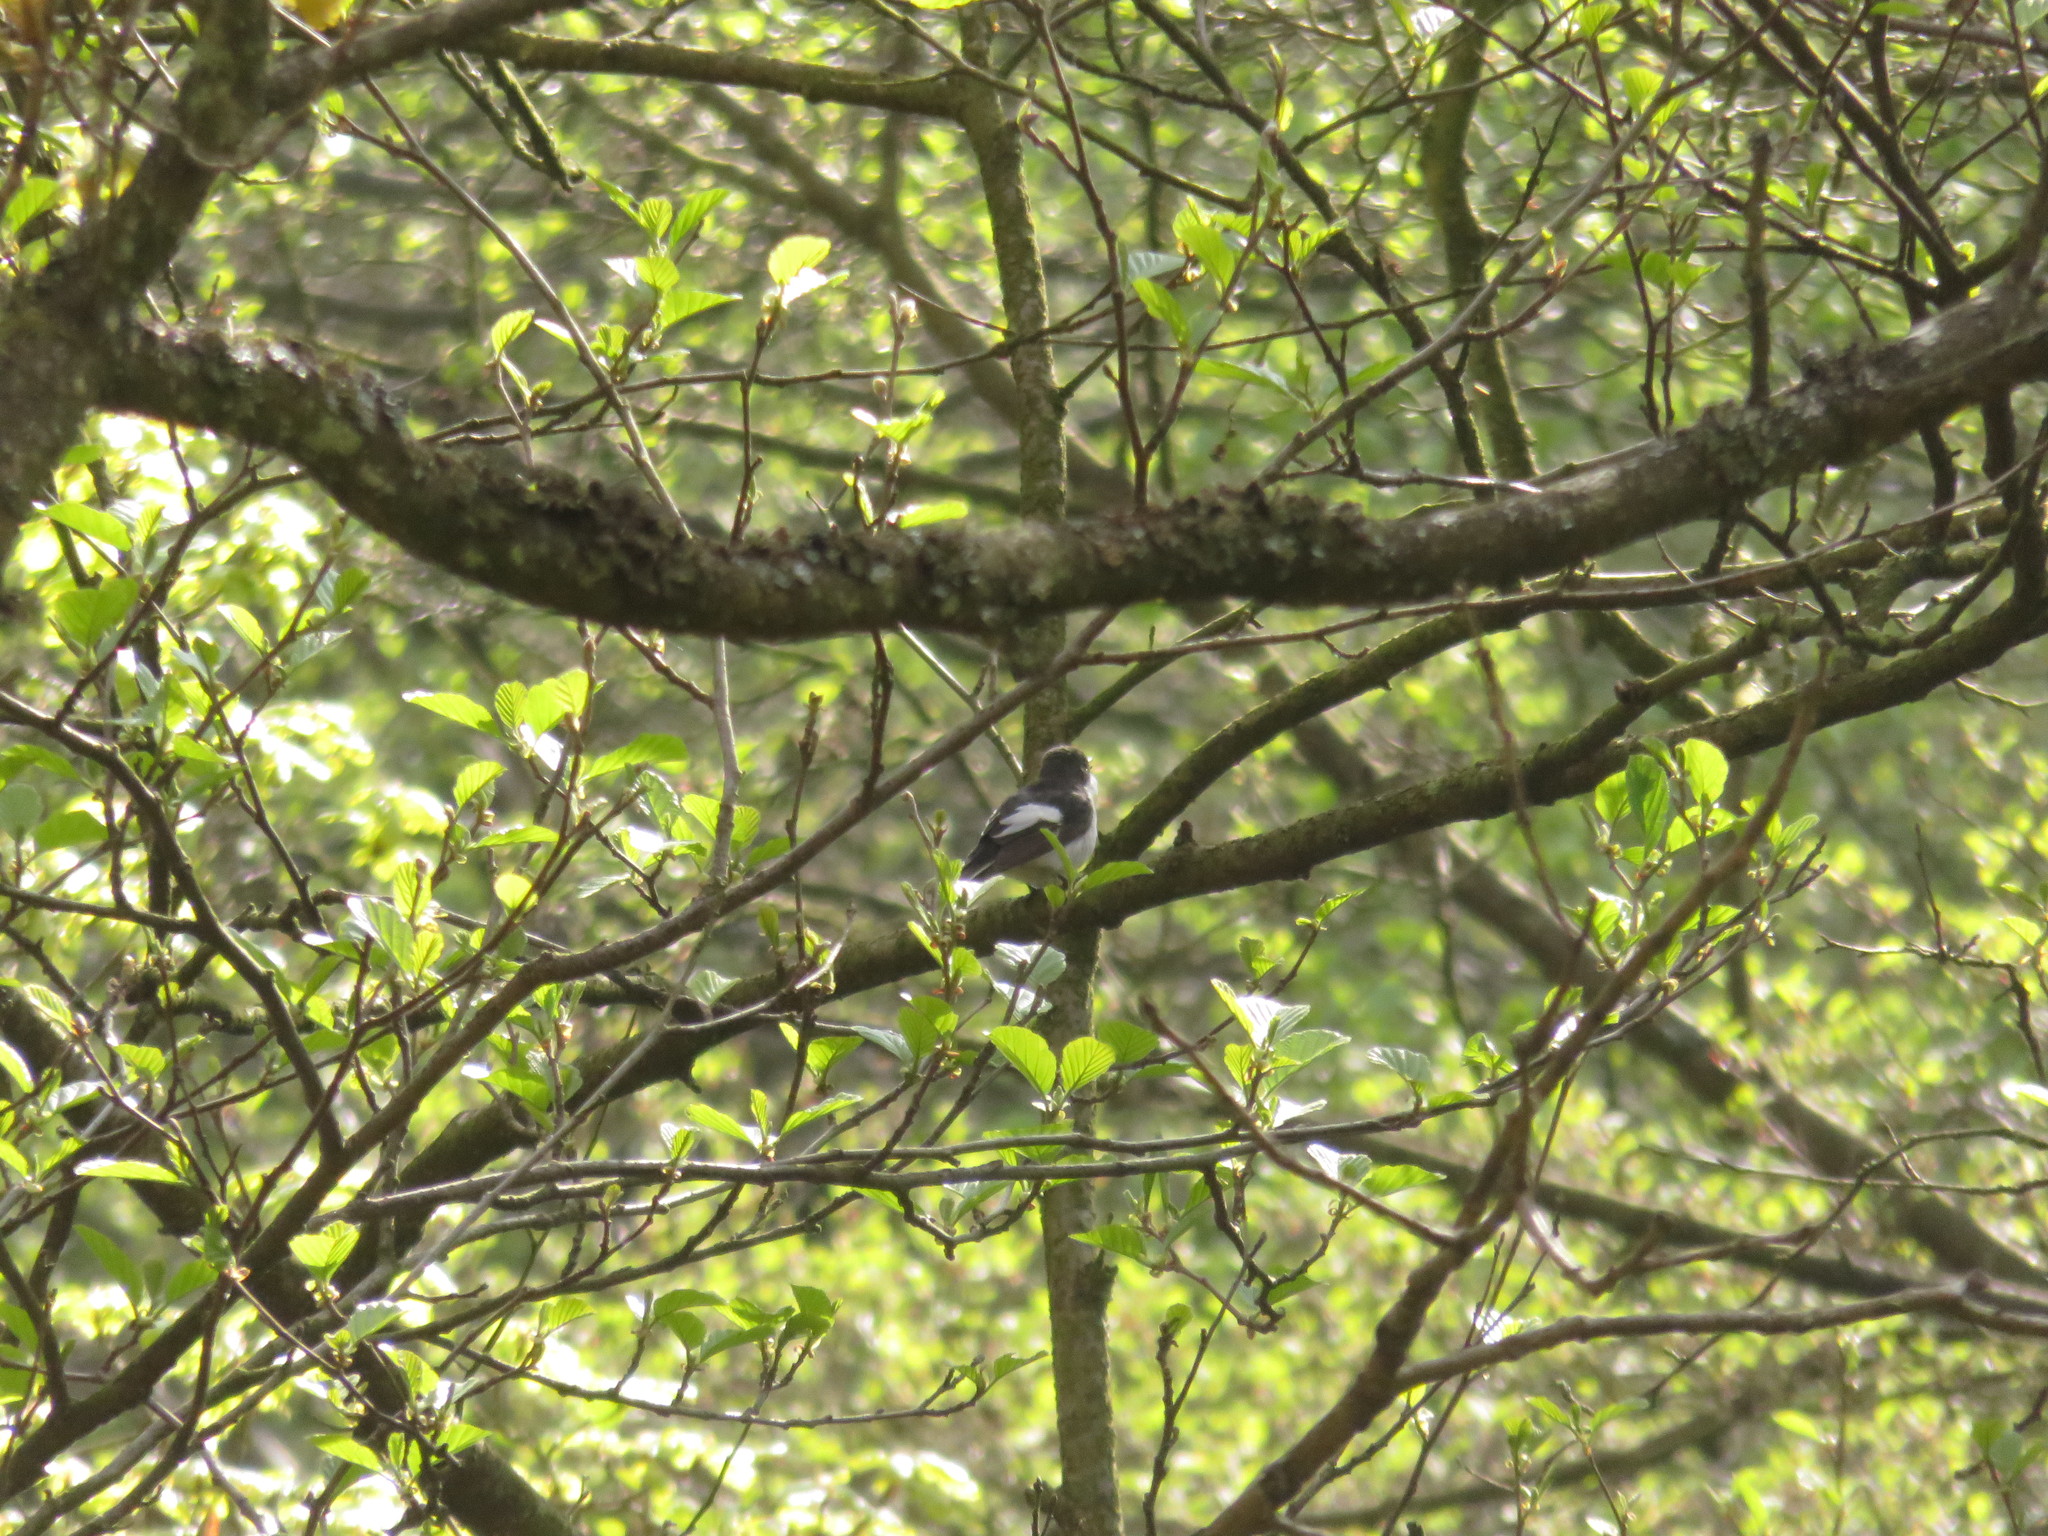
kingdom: Animalia
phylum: Chordata
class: Aves
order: Passeriformes
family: Muscicapidae
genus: Ficedula
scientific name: Ficedula hypoleuca
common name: European pied flycatcher
